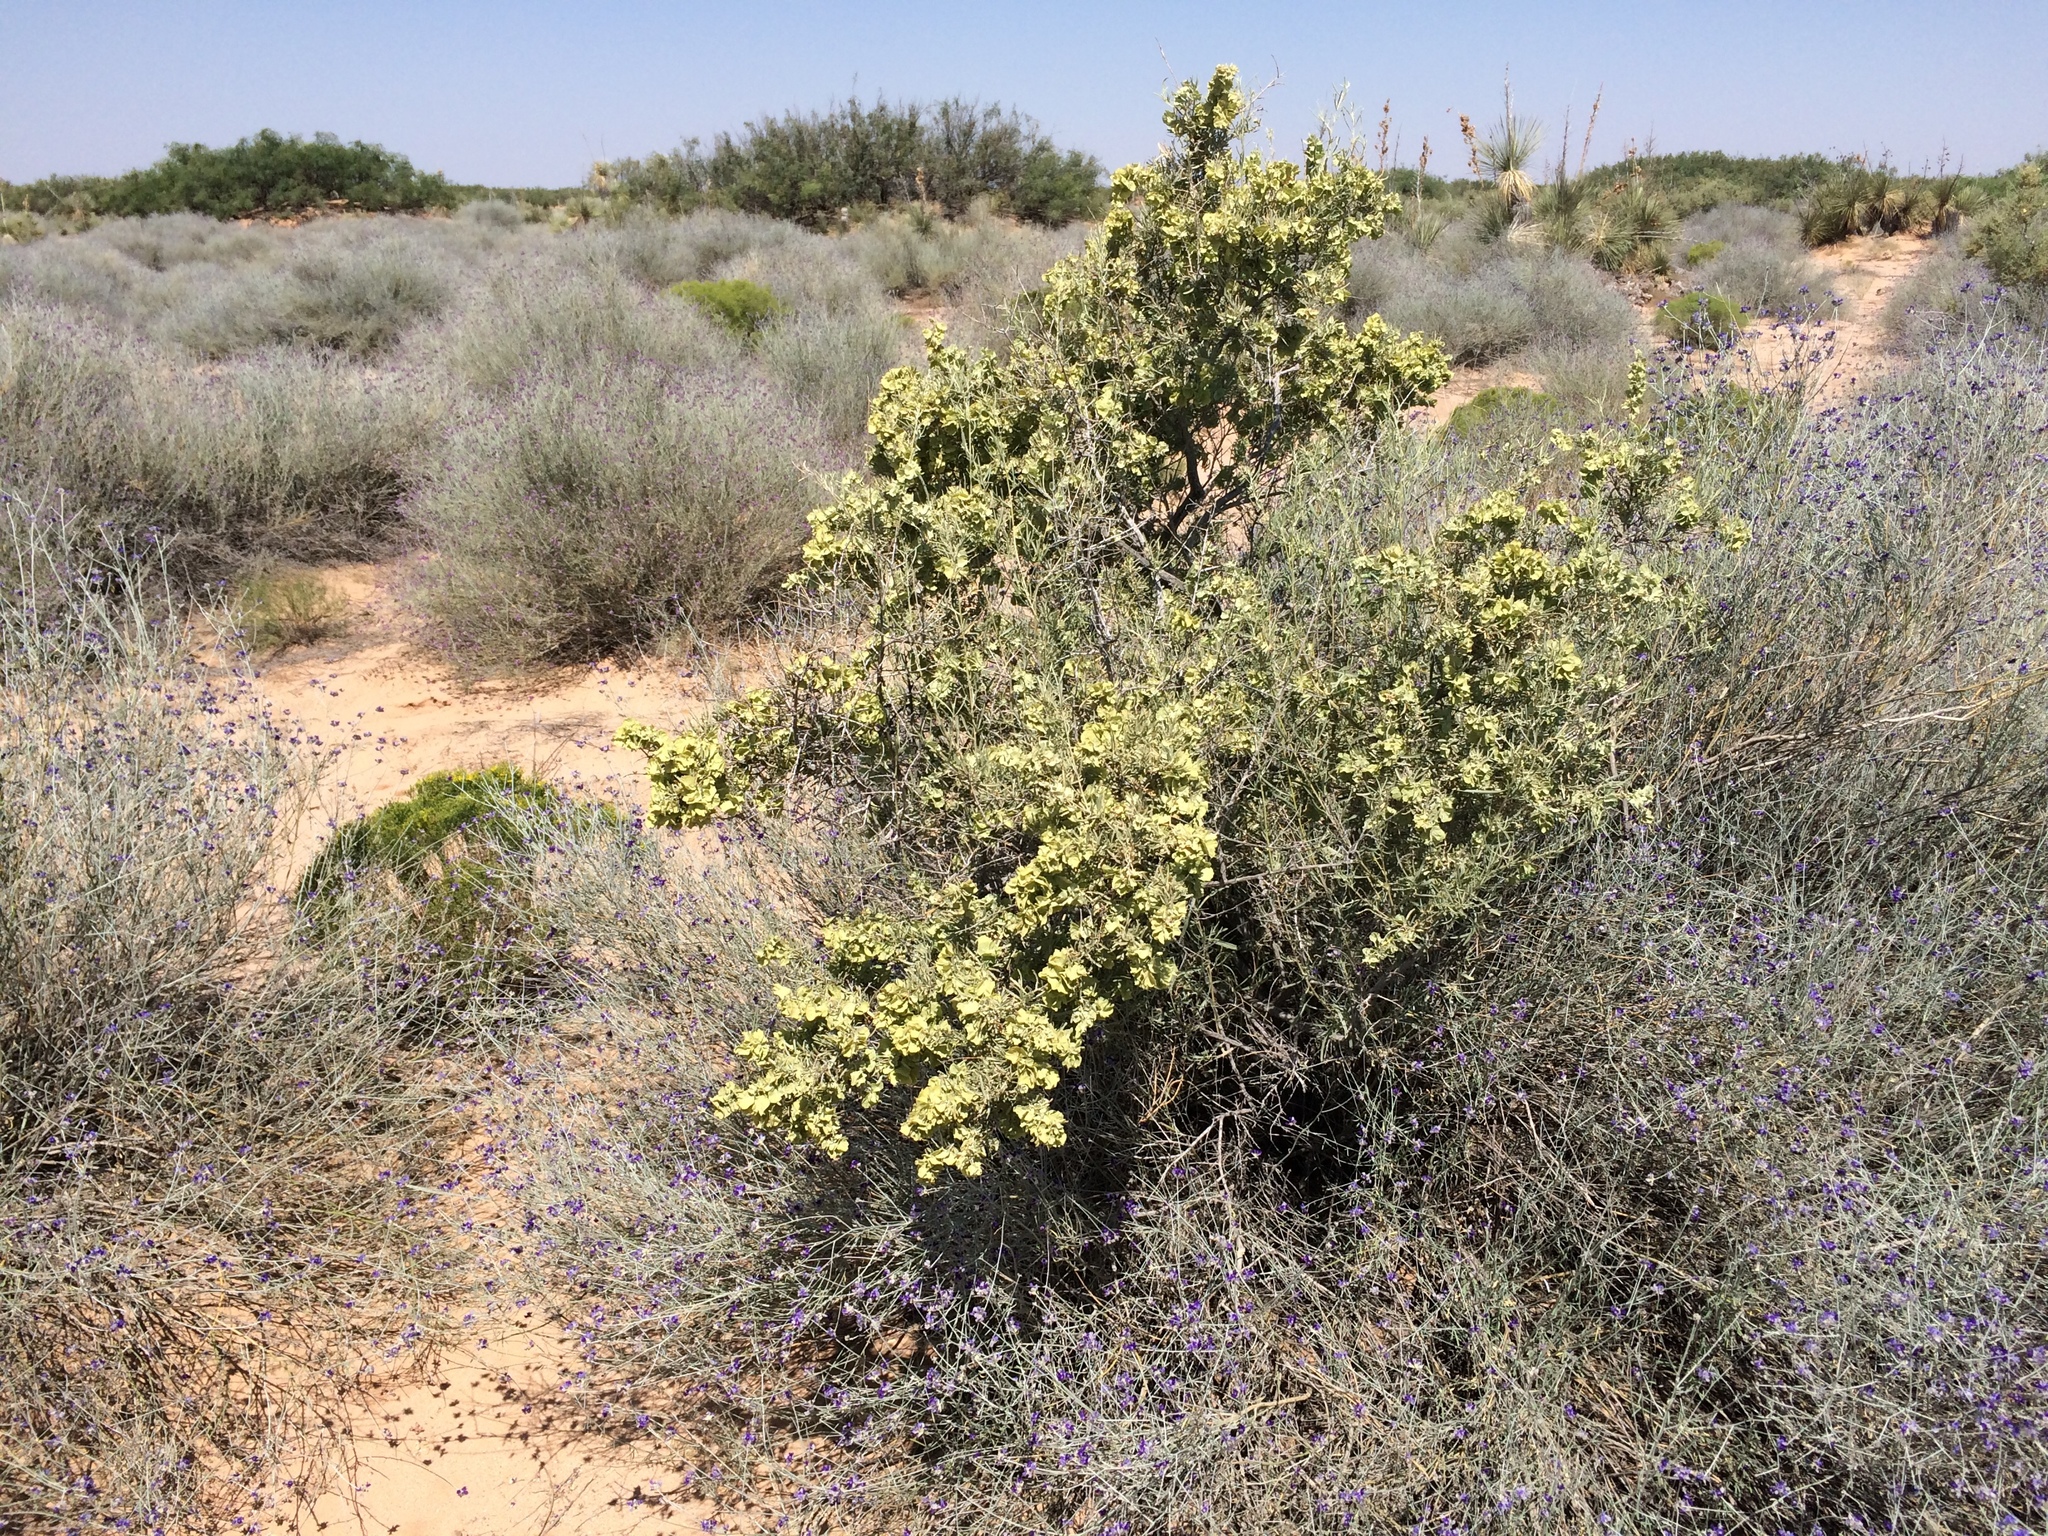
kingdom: Plantae
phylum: Tracheophyta
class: Magnoliopsida
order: Caryophyllales
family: Amaranthaceae
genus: Atriplex
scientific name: Atriplex canescens
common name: Four-wing saltbush
